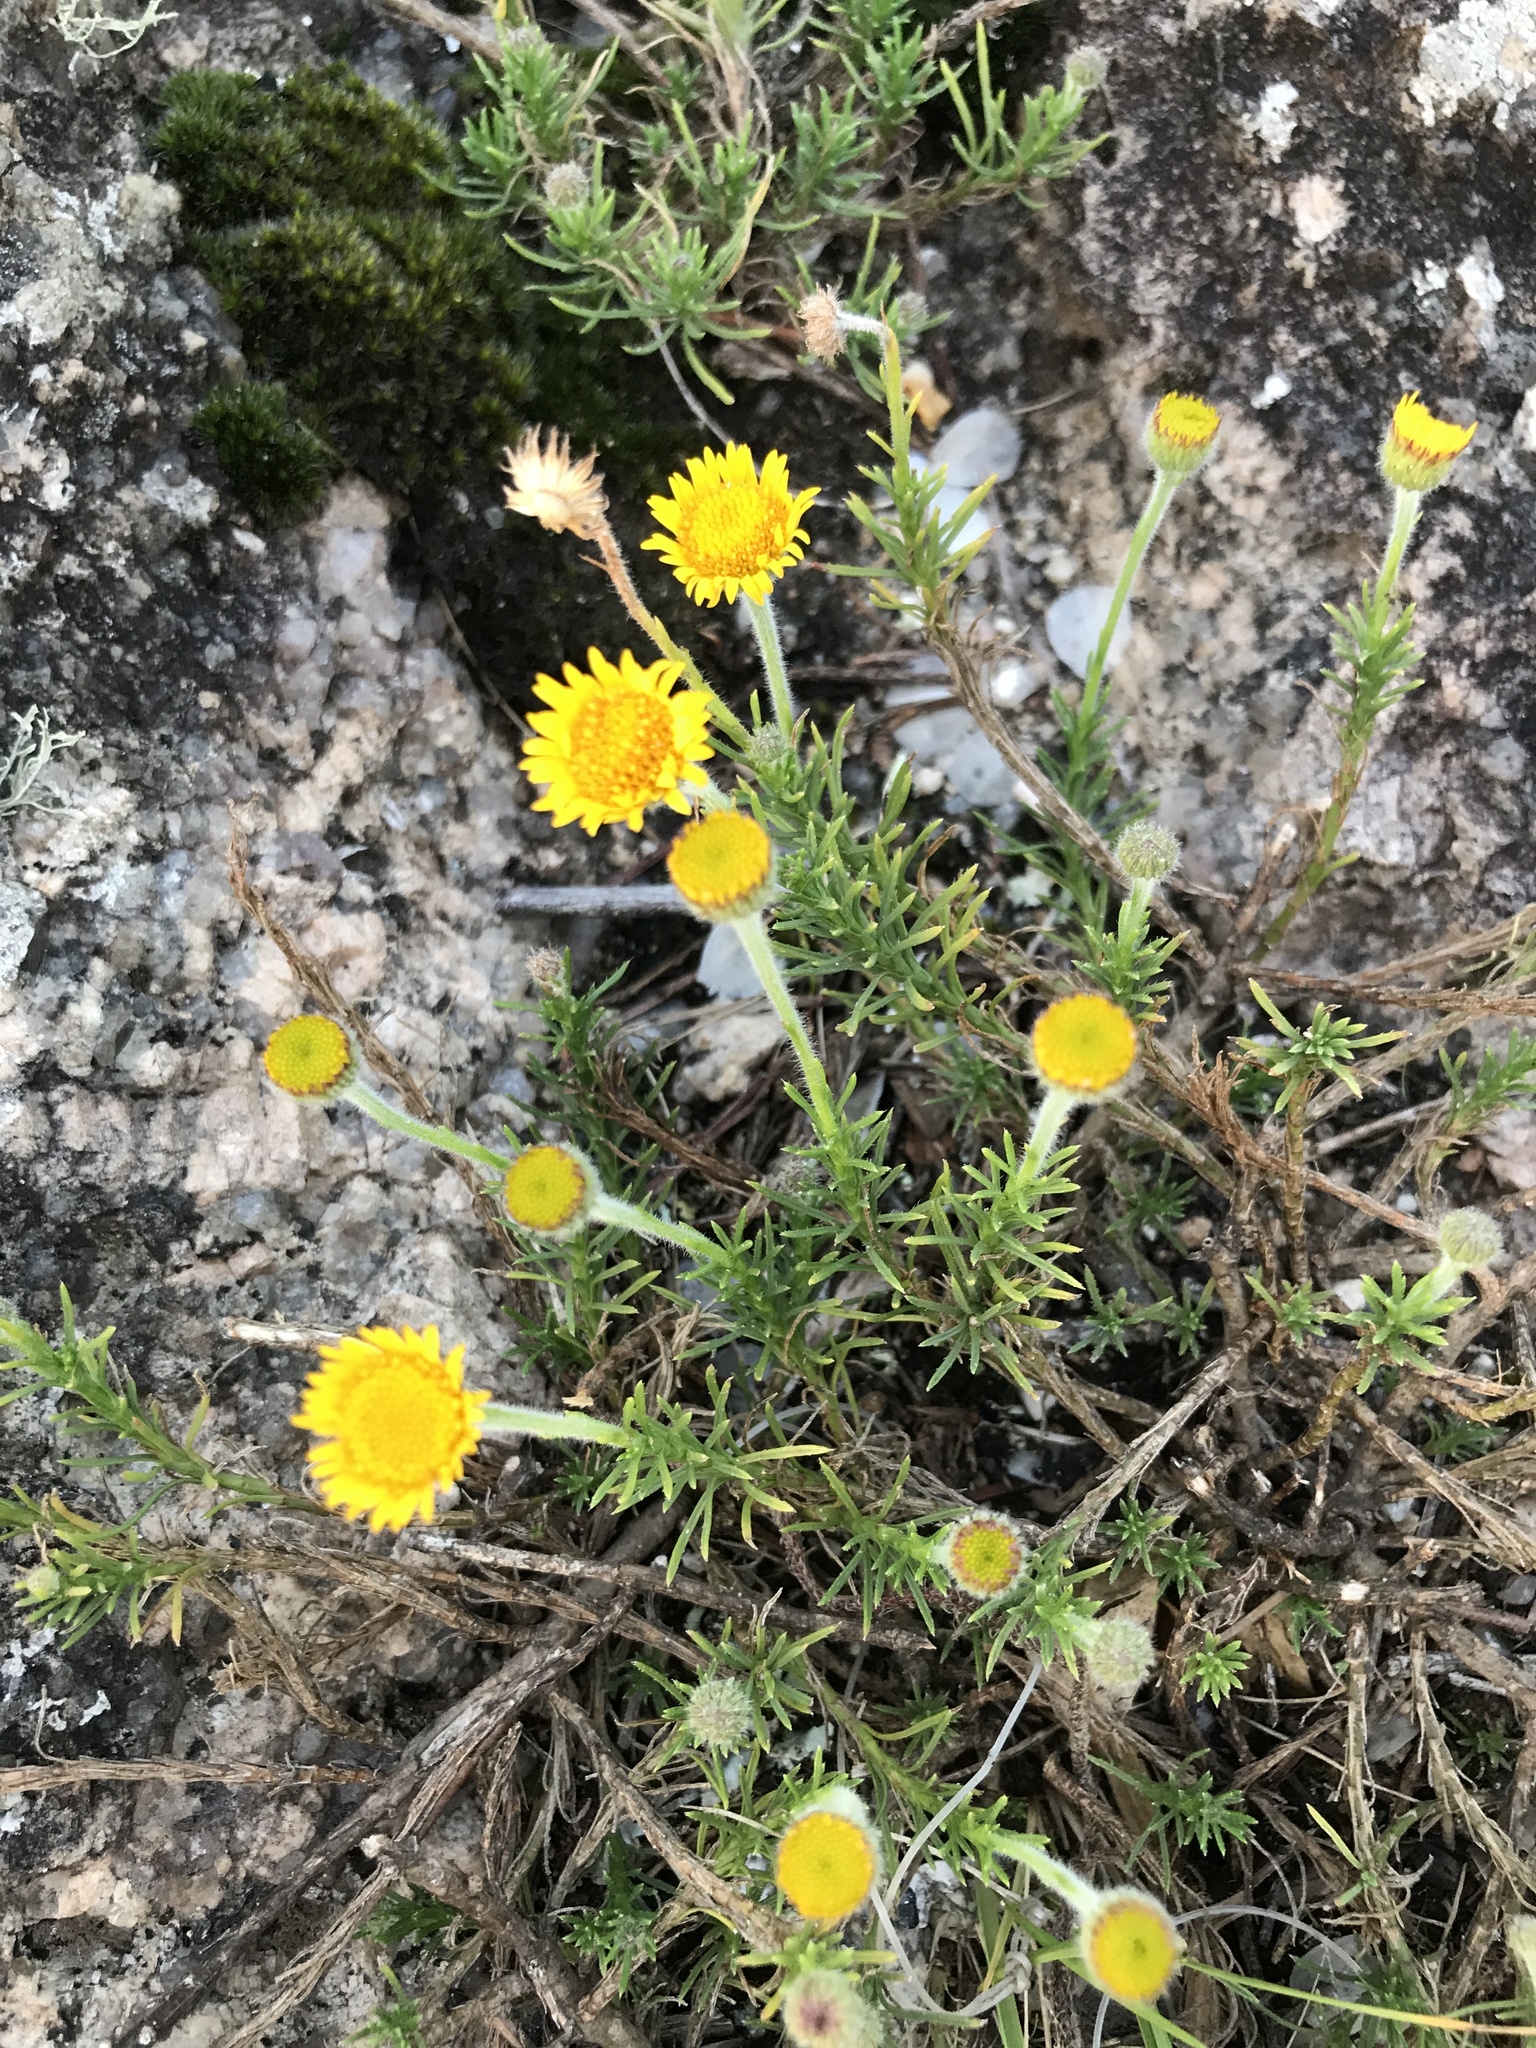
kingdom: Plantae
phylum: Tracheophyta
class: Magnoliopsida
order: Asterales
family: Asteraceae
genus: Neja
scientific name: Neja pinifolia
